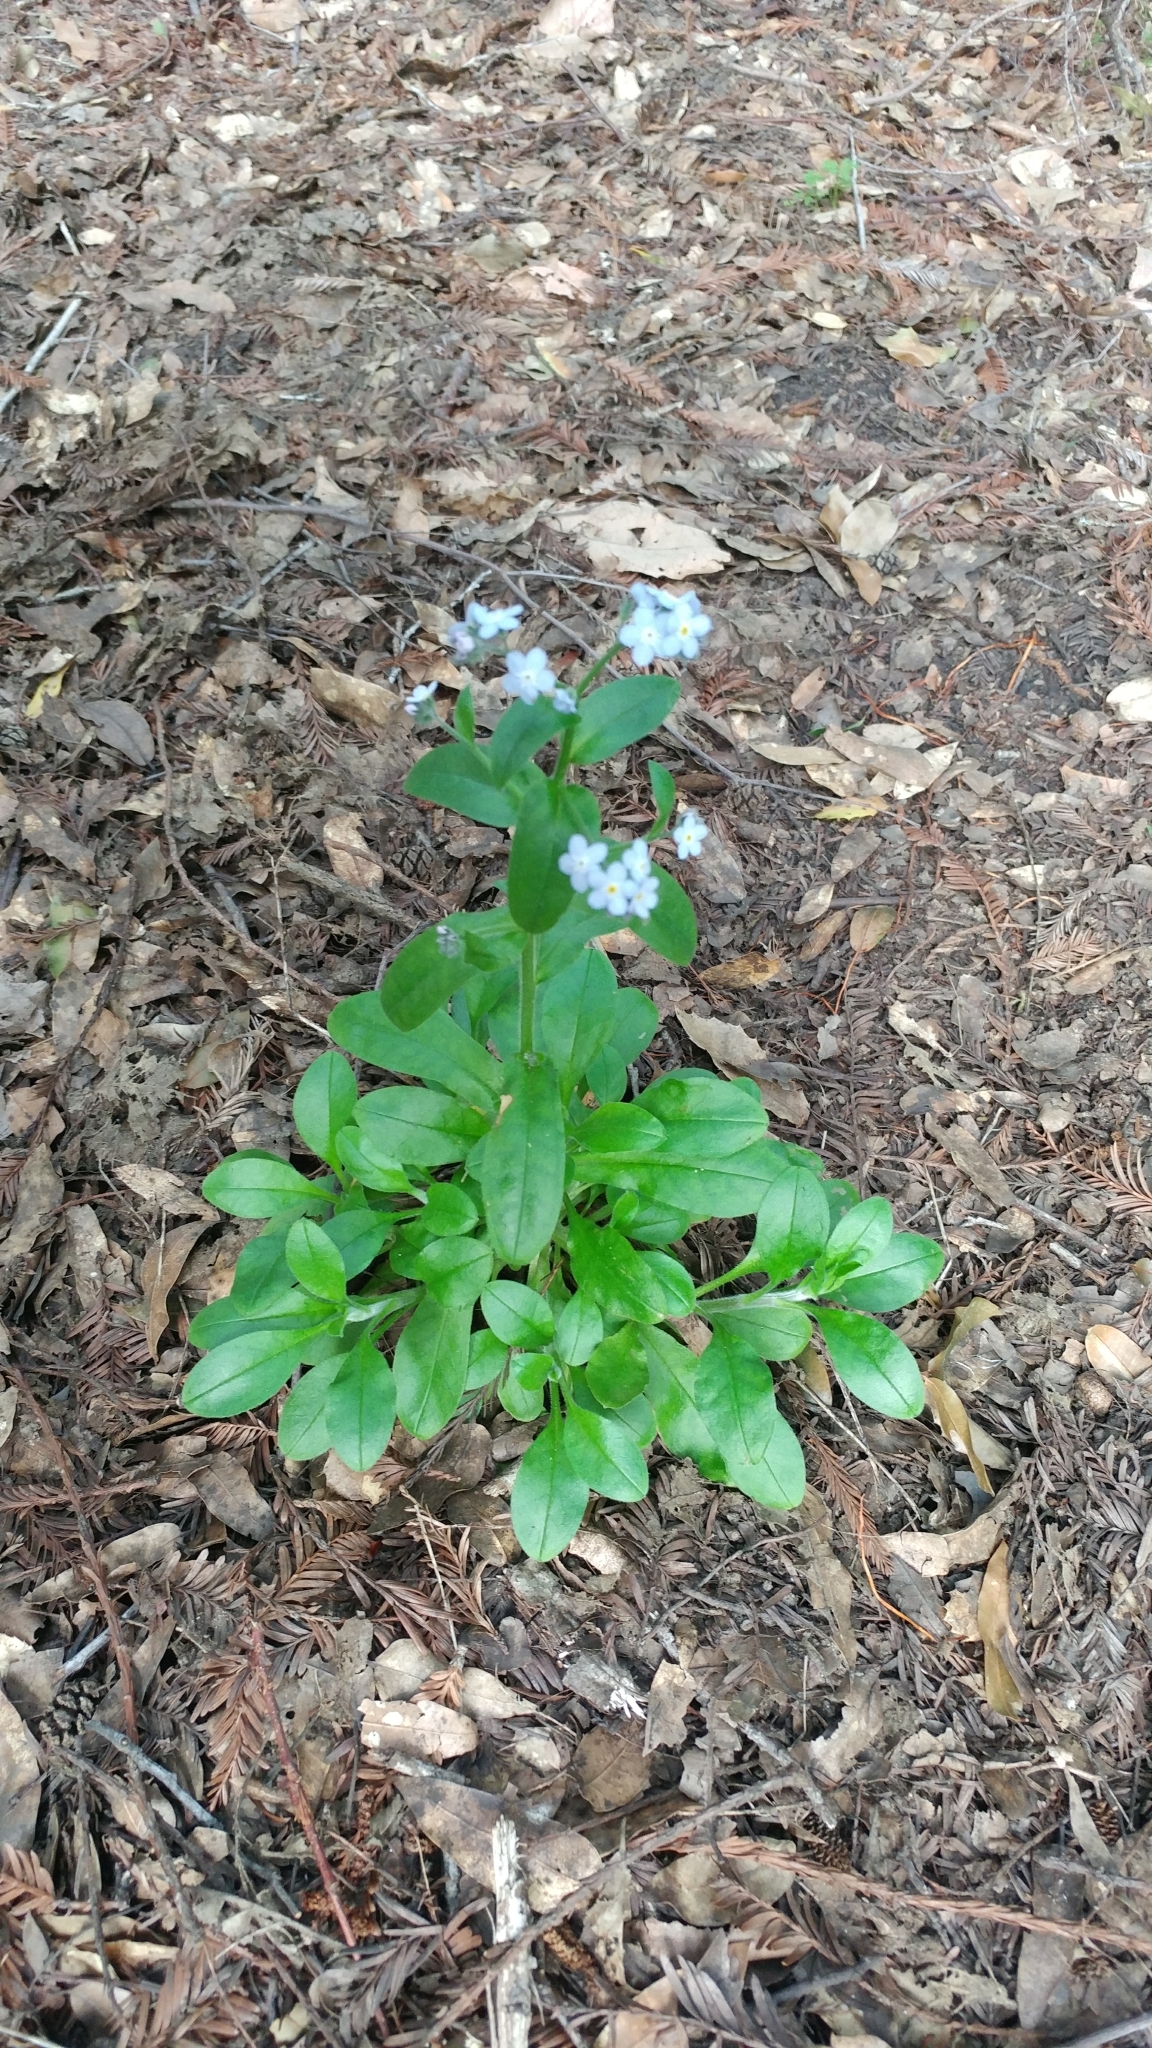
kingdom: Plantae
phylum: Tracheophyta
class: Magnoliopsida
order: Boraginales
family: Boraginaceae
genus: Myosotis
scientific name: Myosotis latifolia
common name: Broadleaf forget-me-not
